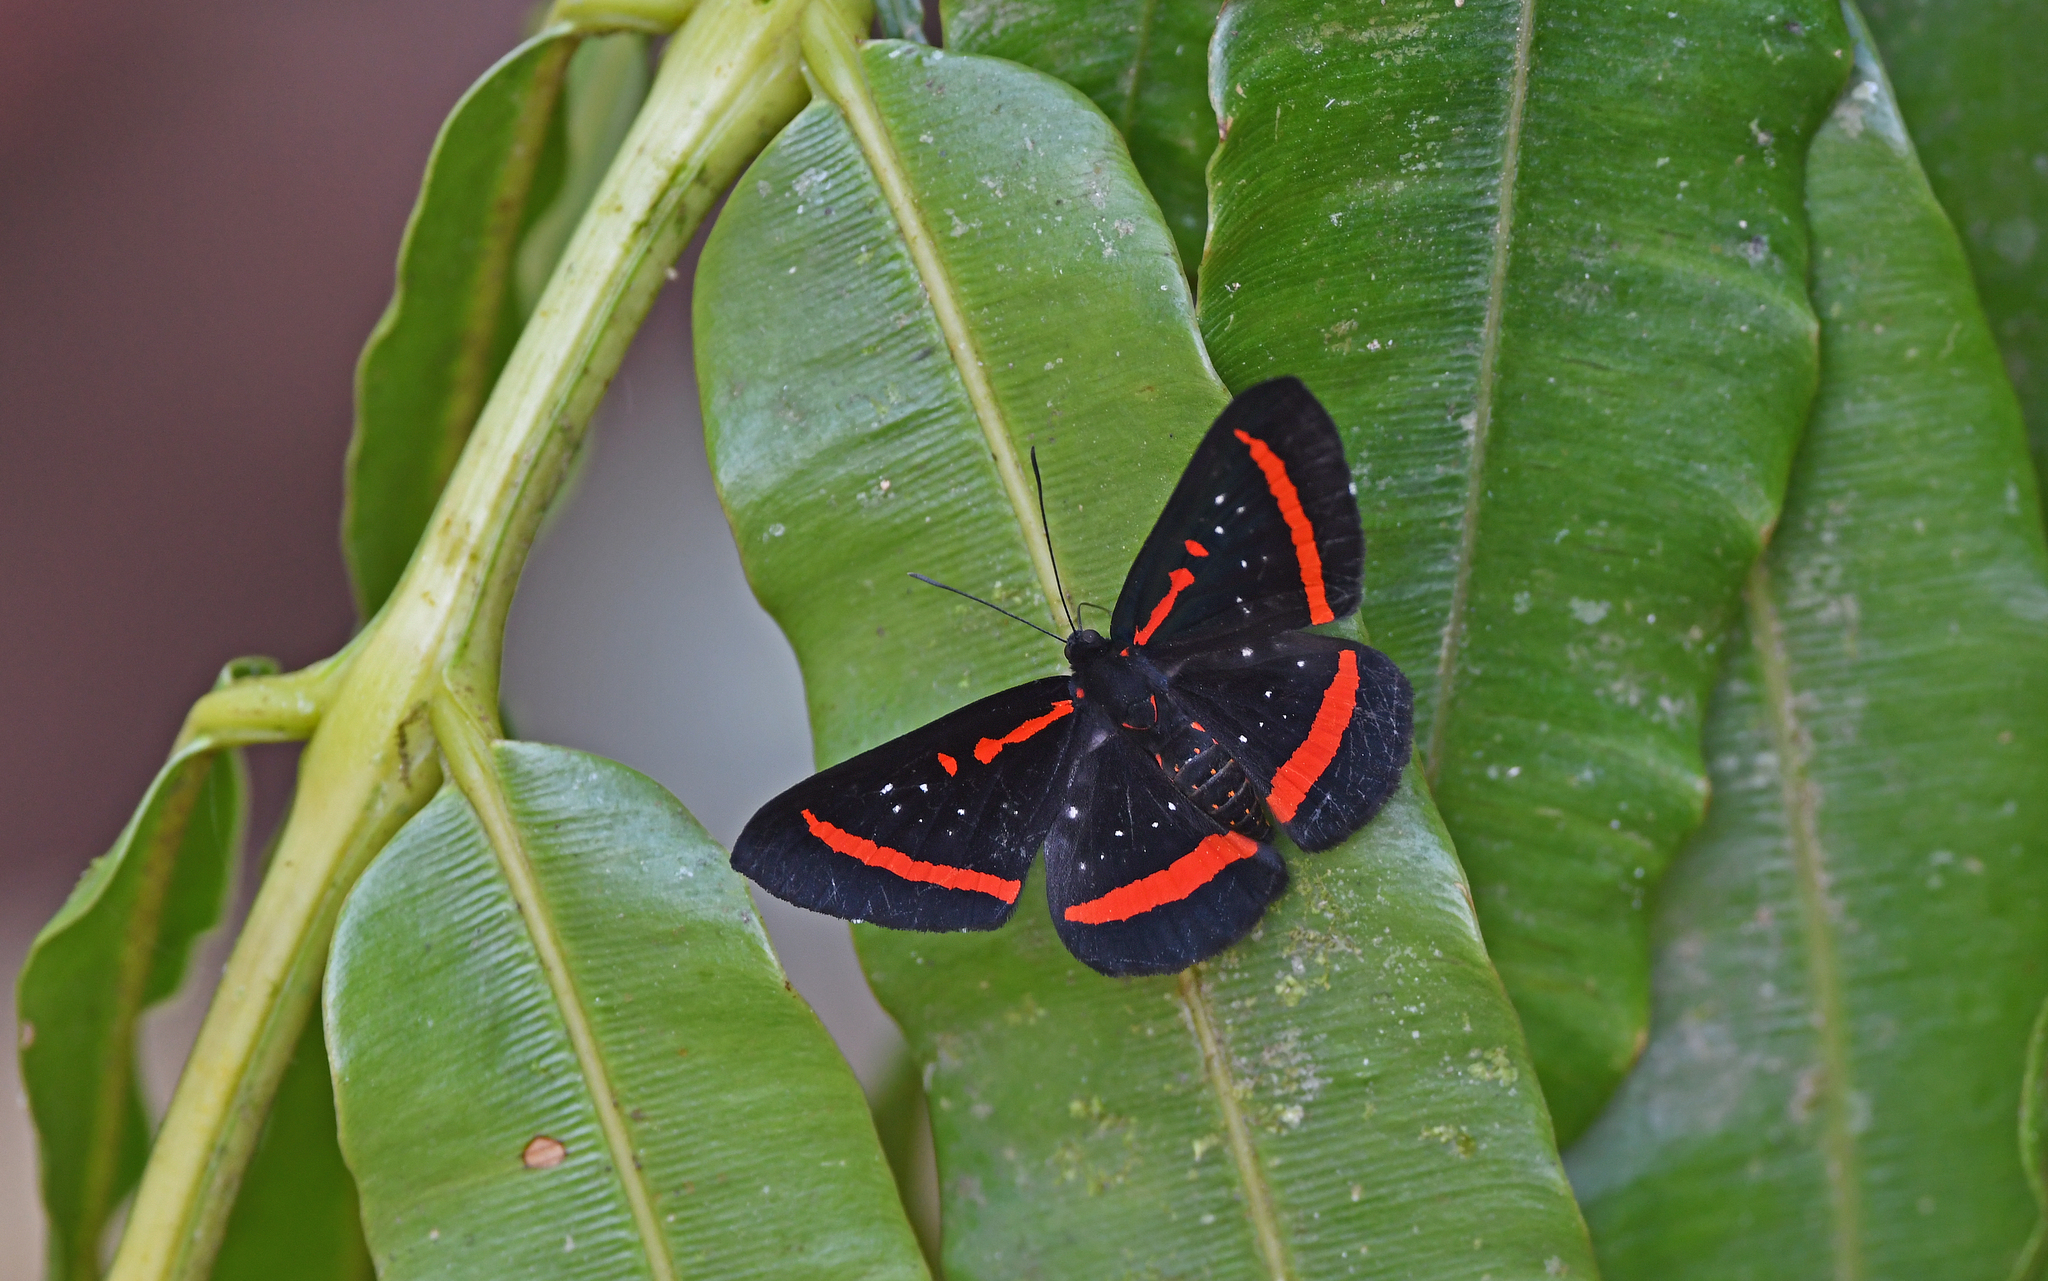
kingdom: Animalia
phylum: Arthropoda
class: Insecta
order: Lepidoptera
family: Riodinidae
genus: Amarynthis
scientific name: Amarynthis meneria
